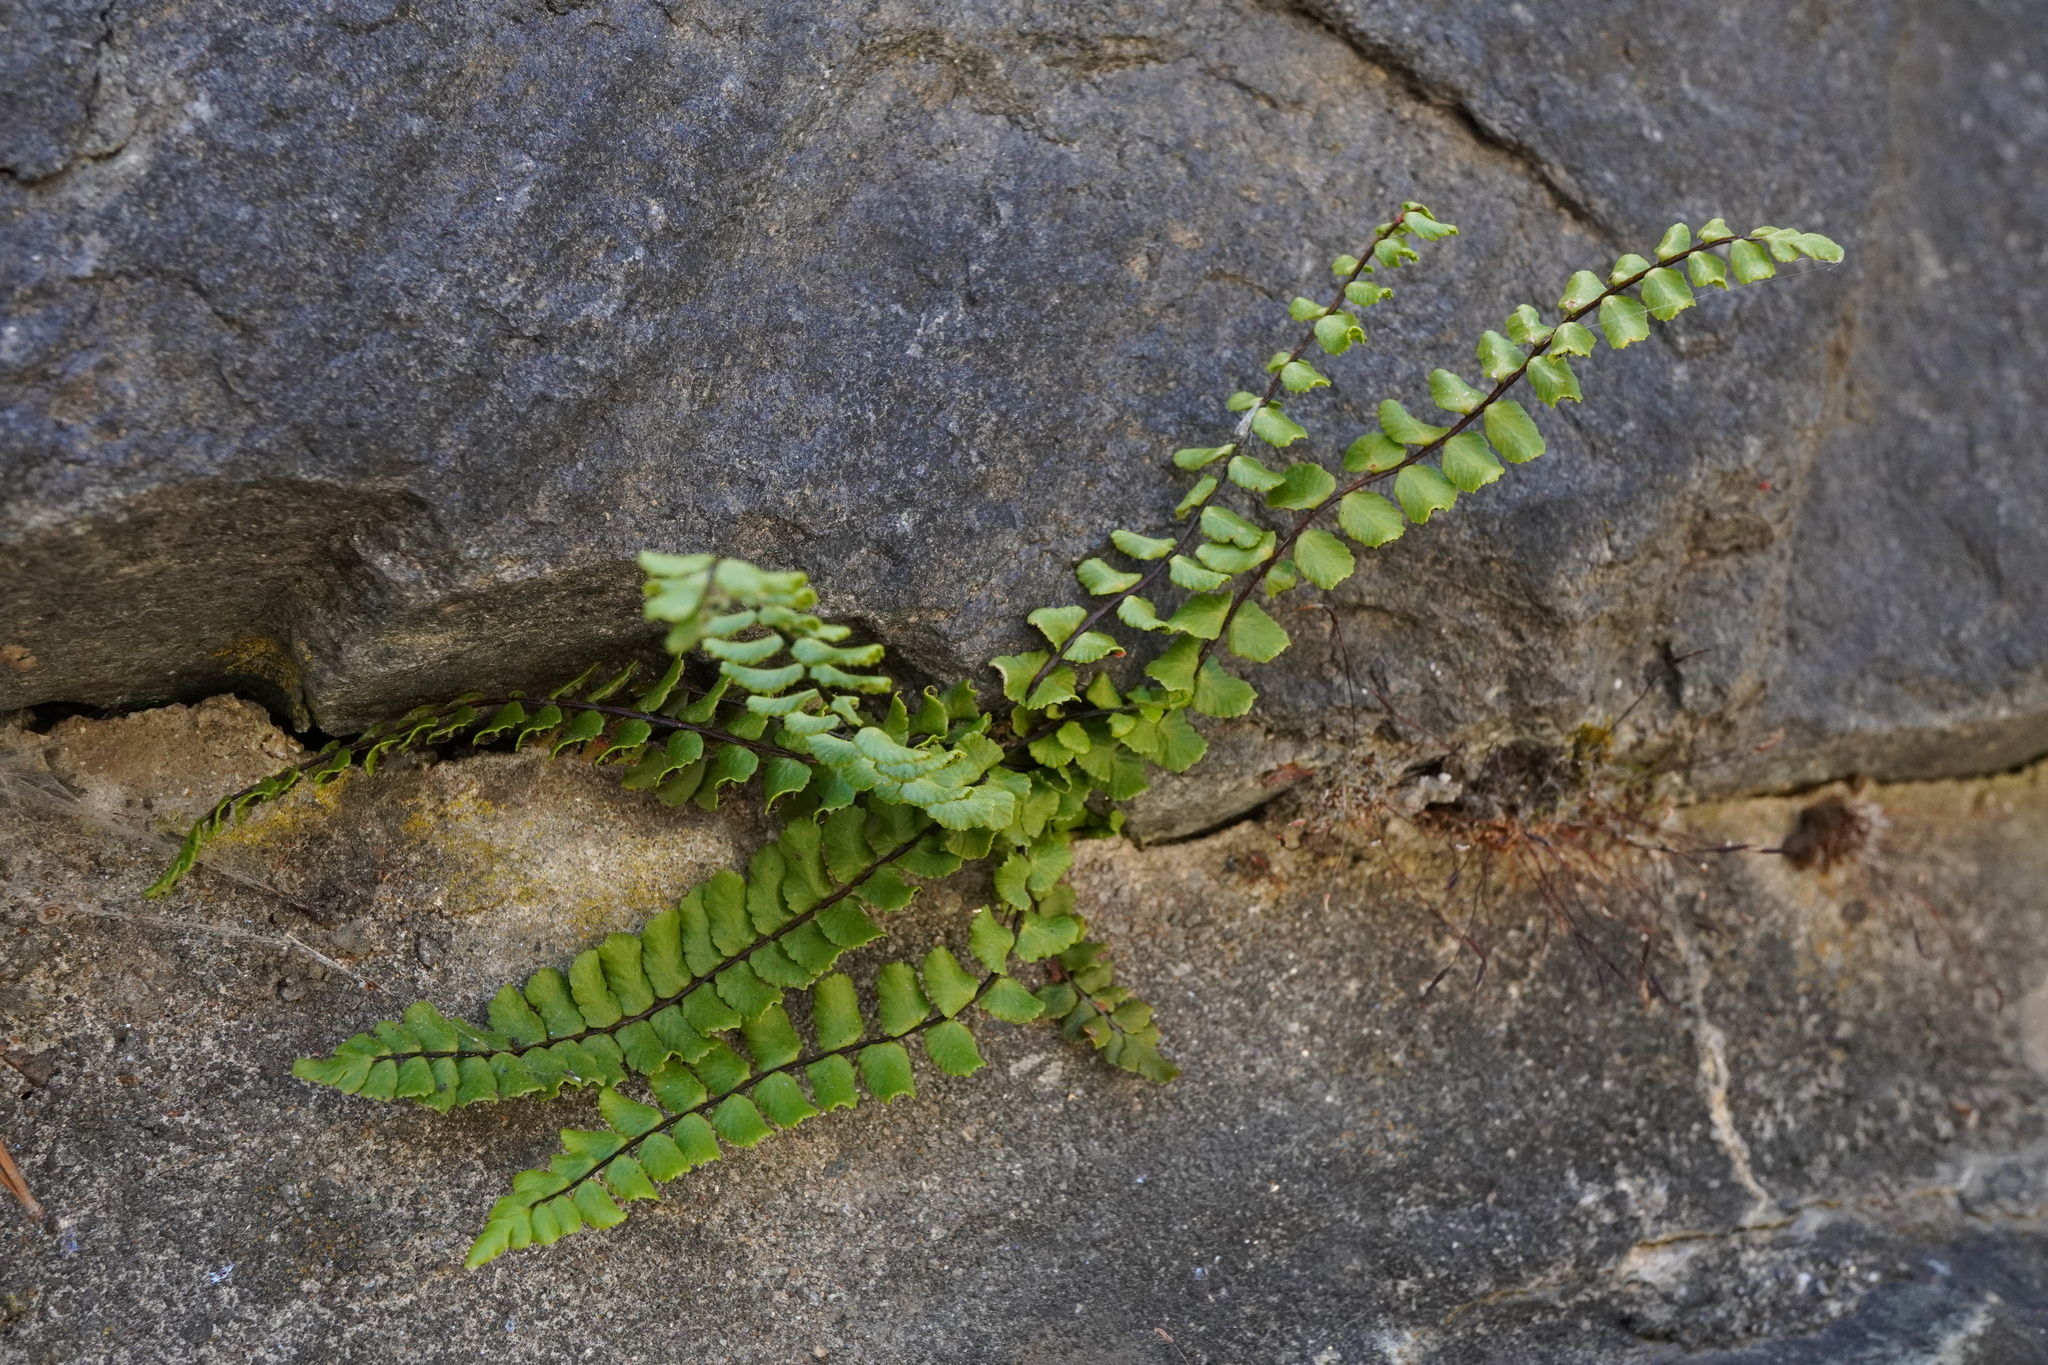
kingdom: Plantae
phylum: Tracheophyta
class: Polypodiopsida
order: Polypodiales
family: Aspleniaceae
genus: Asplenium
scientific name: Asplenium trichomanes
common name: Maidenhair spleenwort
